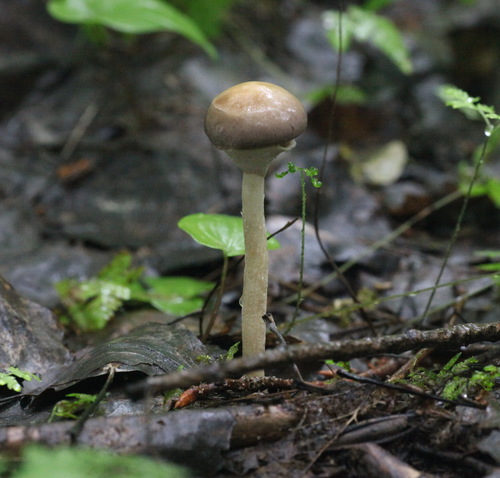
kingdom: Fungi
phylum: Basidiomycota
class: Agaricomycetes
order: Agaricales
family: Strophariaceae
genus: Agrocybe
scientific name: Agrocybe praecox
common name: Spring fieldcap
